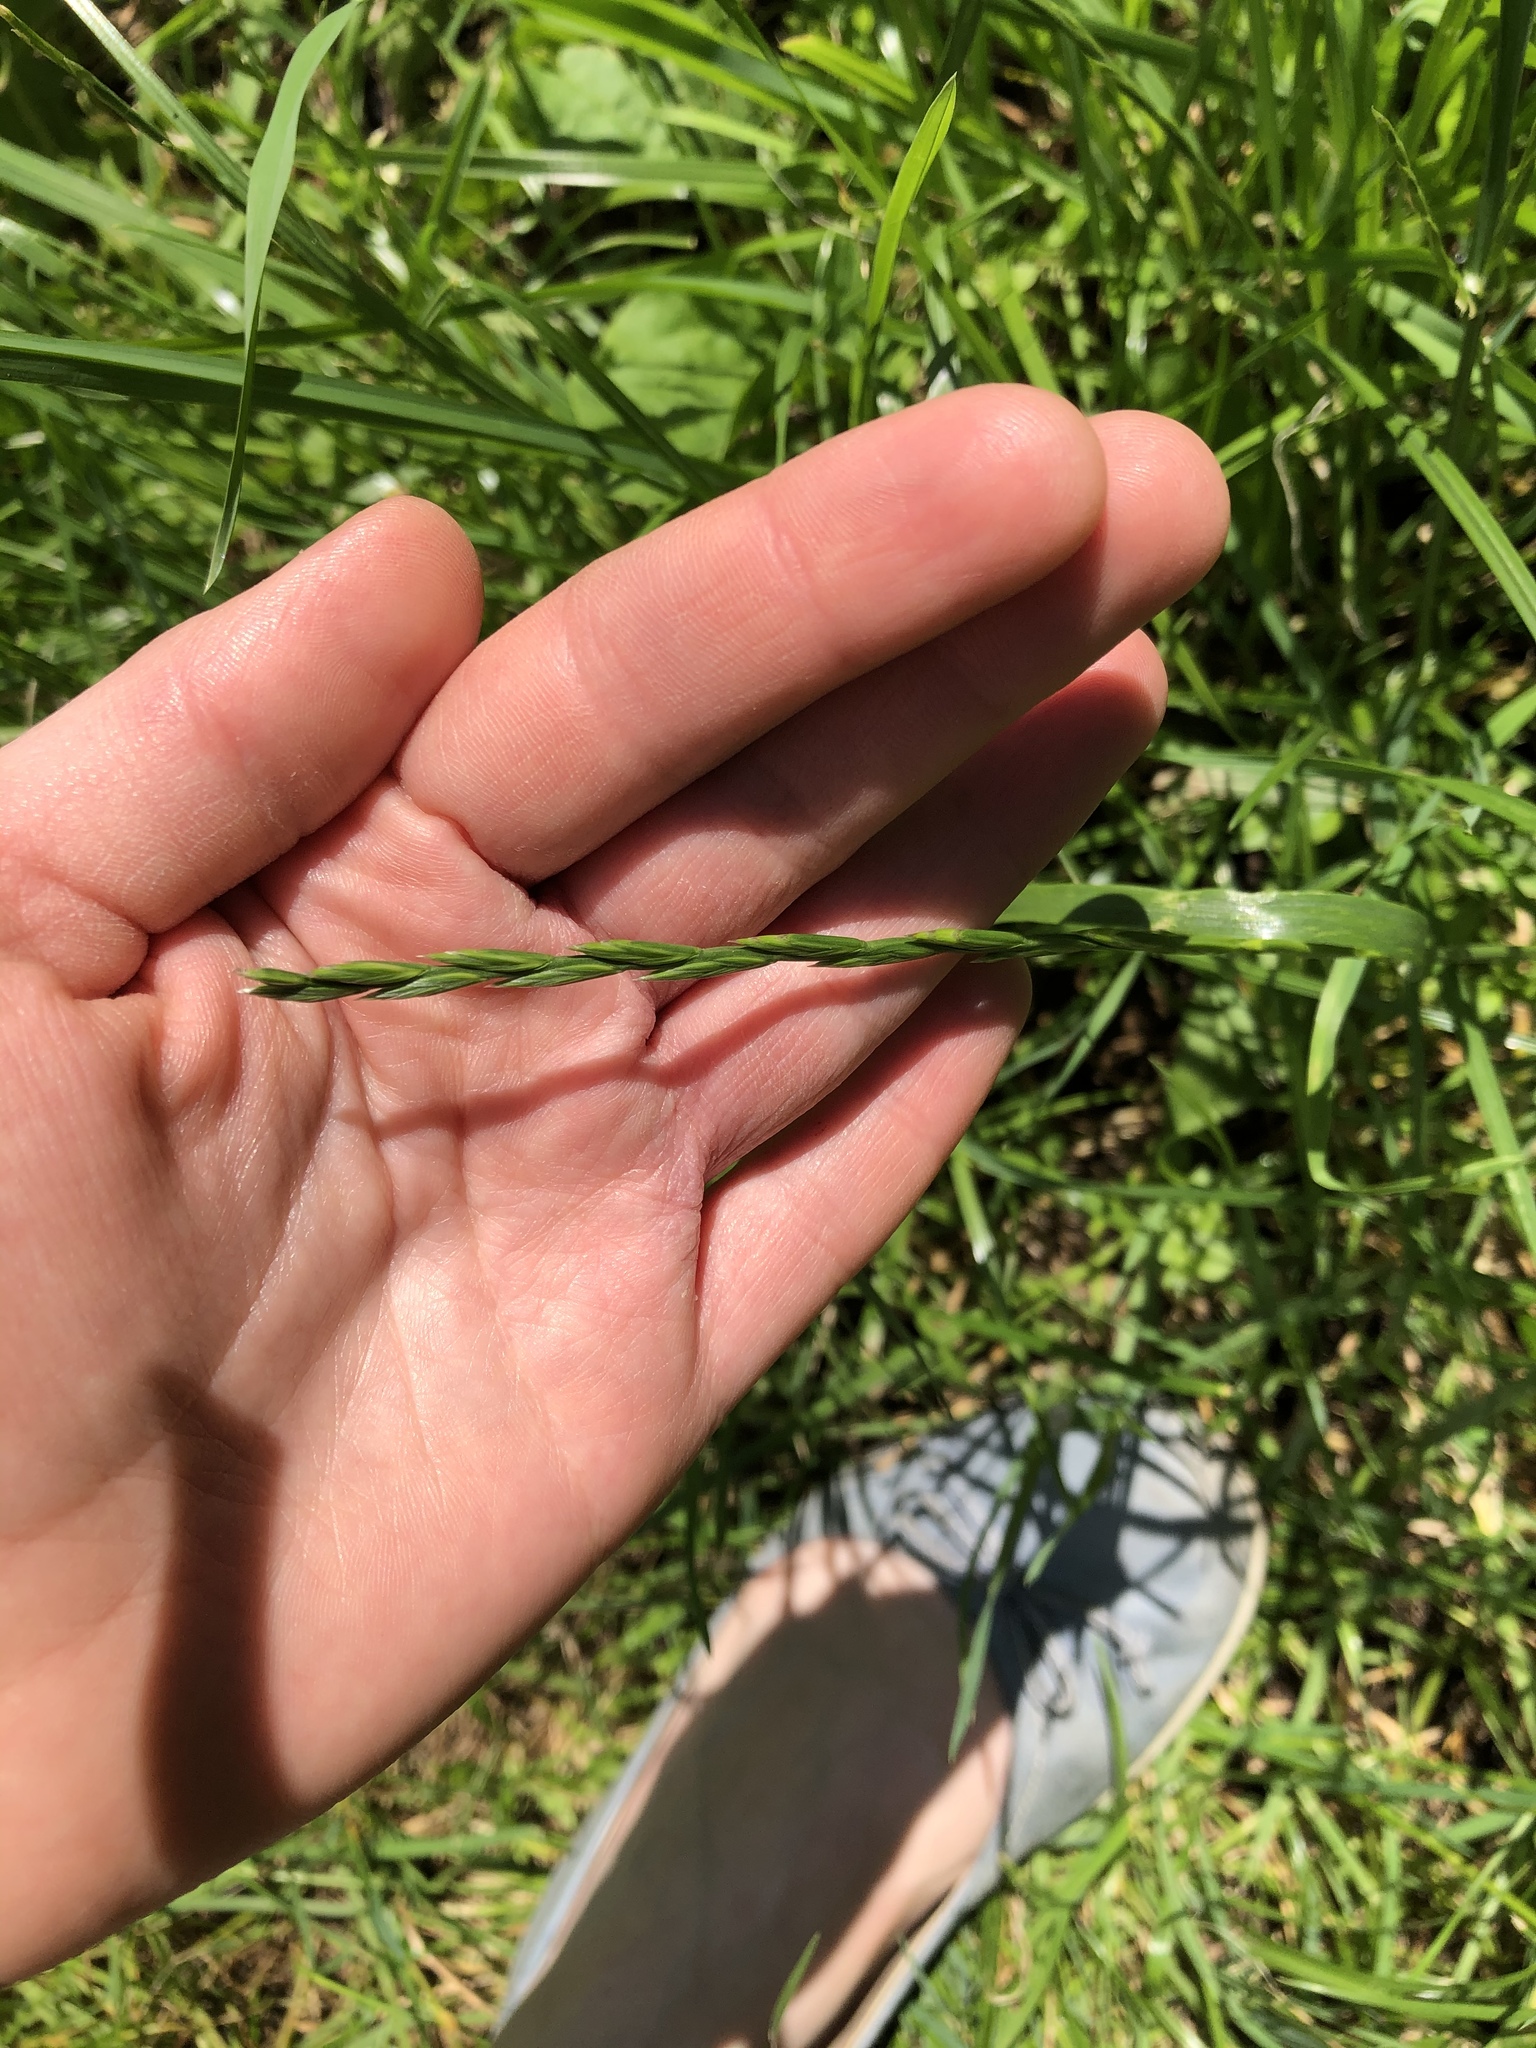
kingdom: Plantae
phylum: Tracheophyta
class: Liliopsida
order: Poales
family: Poaceae
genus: Lolium
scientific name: Lolium perenne
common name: Perennial ryegrass
